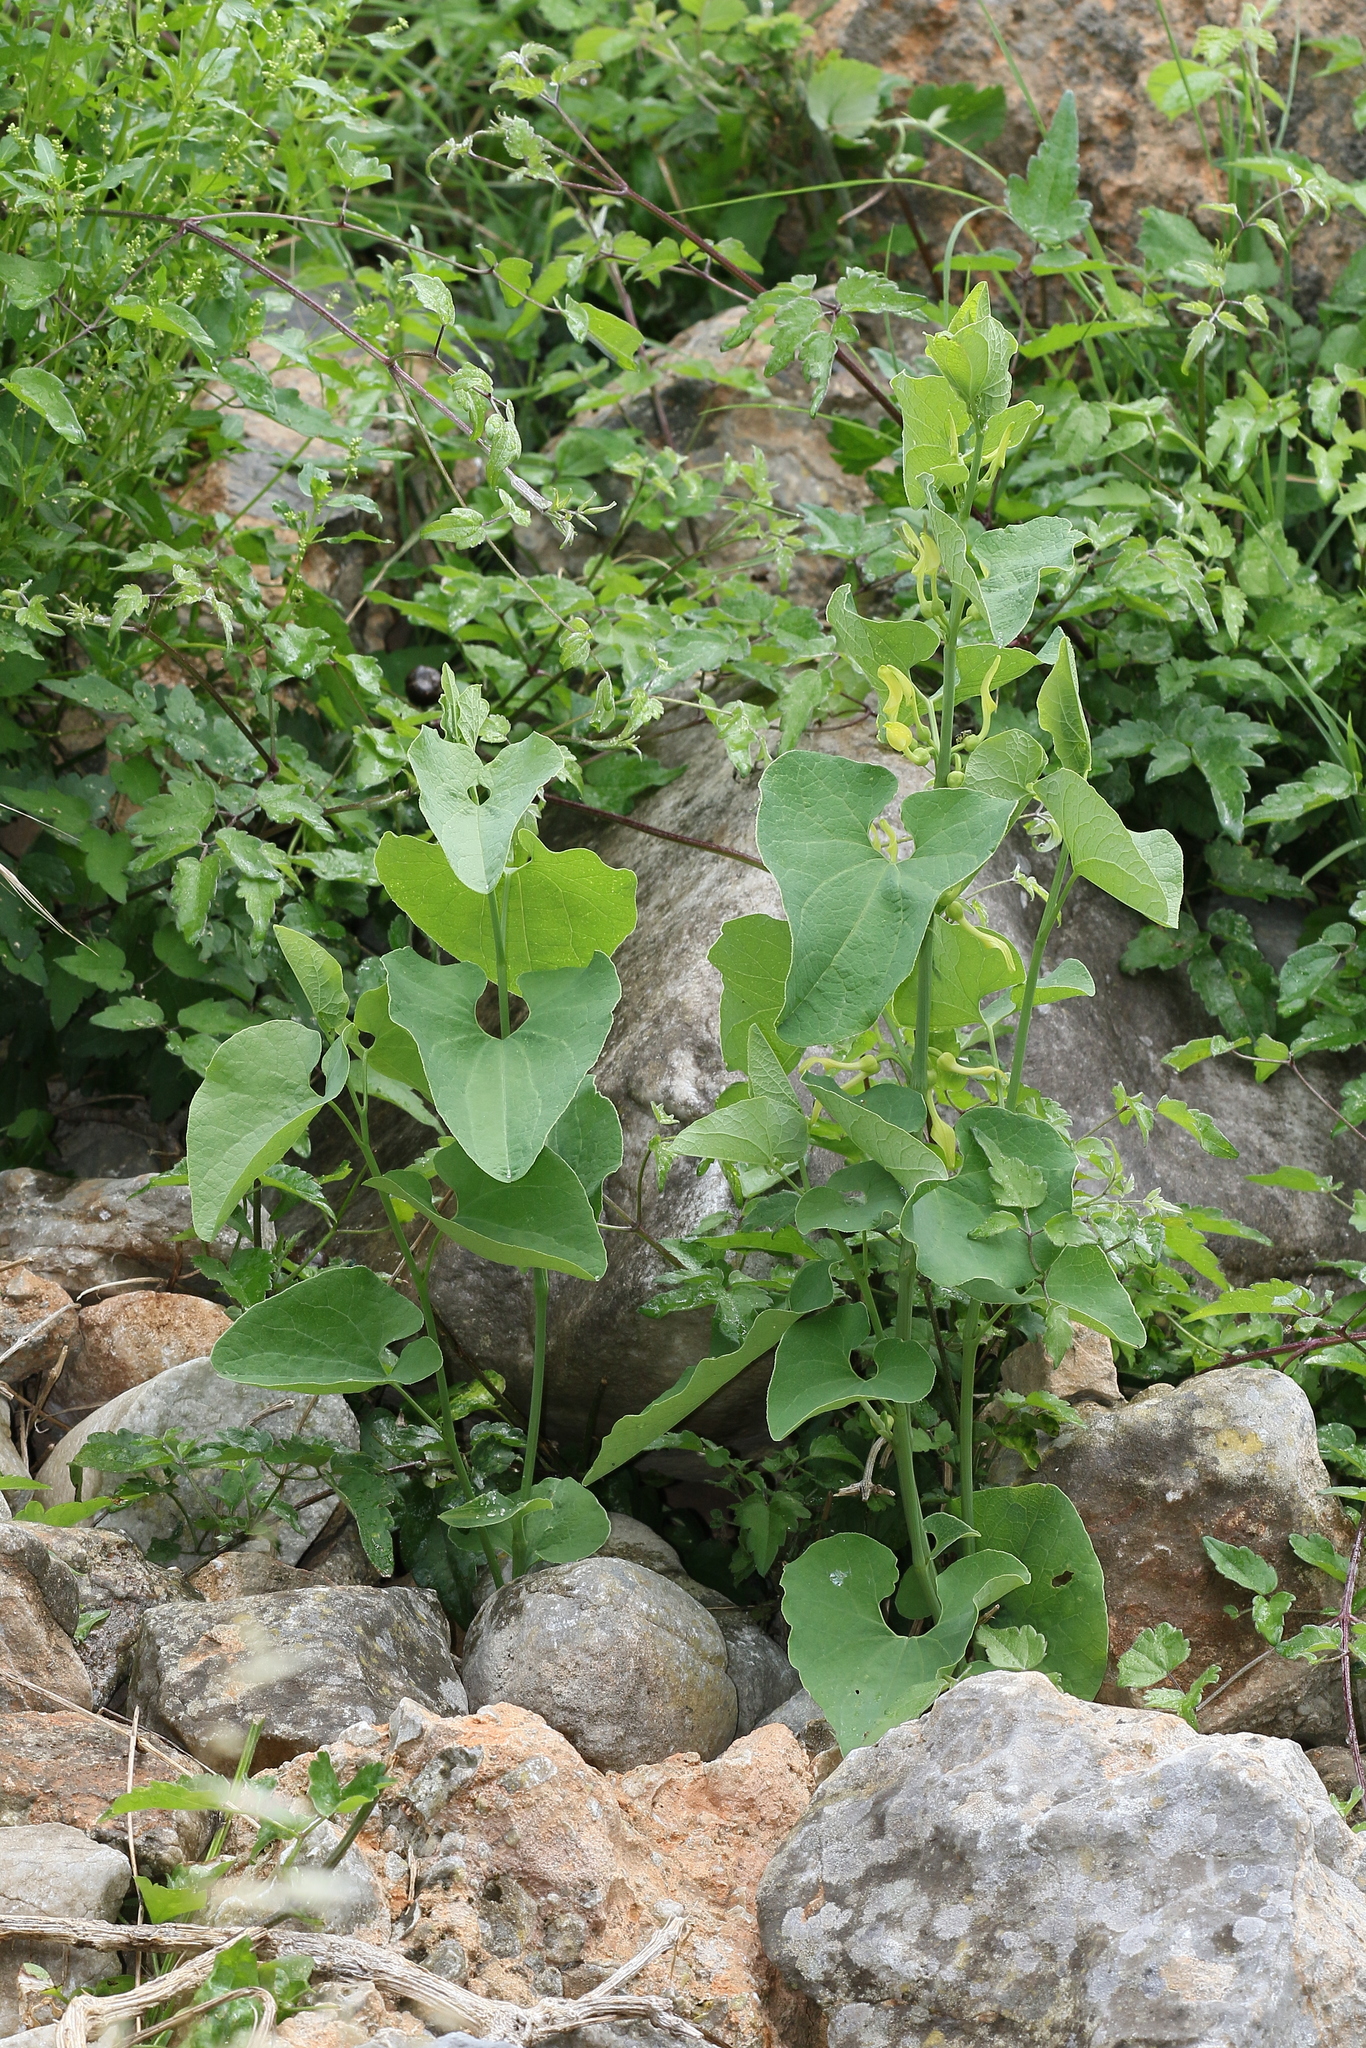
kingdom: Plantae
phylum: Tracheophyta
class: Magnoliopsida
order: Piperales
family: Aristolochiaceae
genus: Aristolochia
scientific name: Aristolochia clematitis
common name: Birthwort
